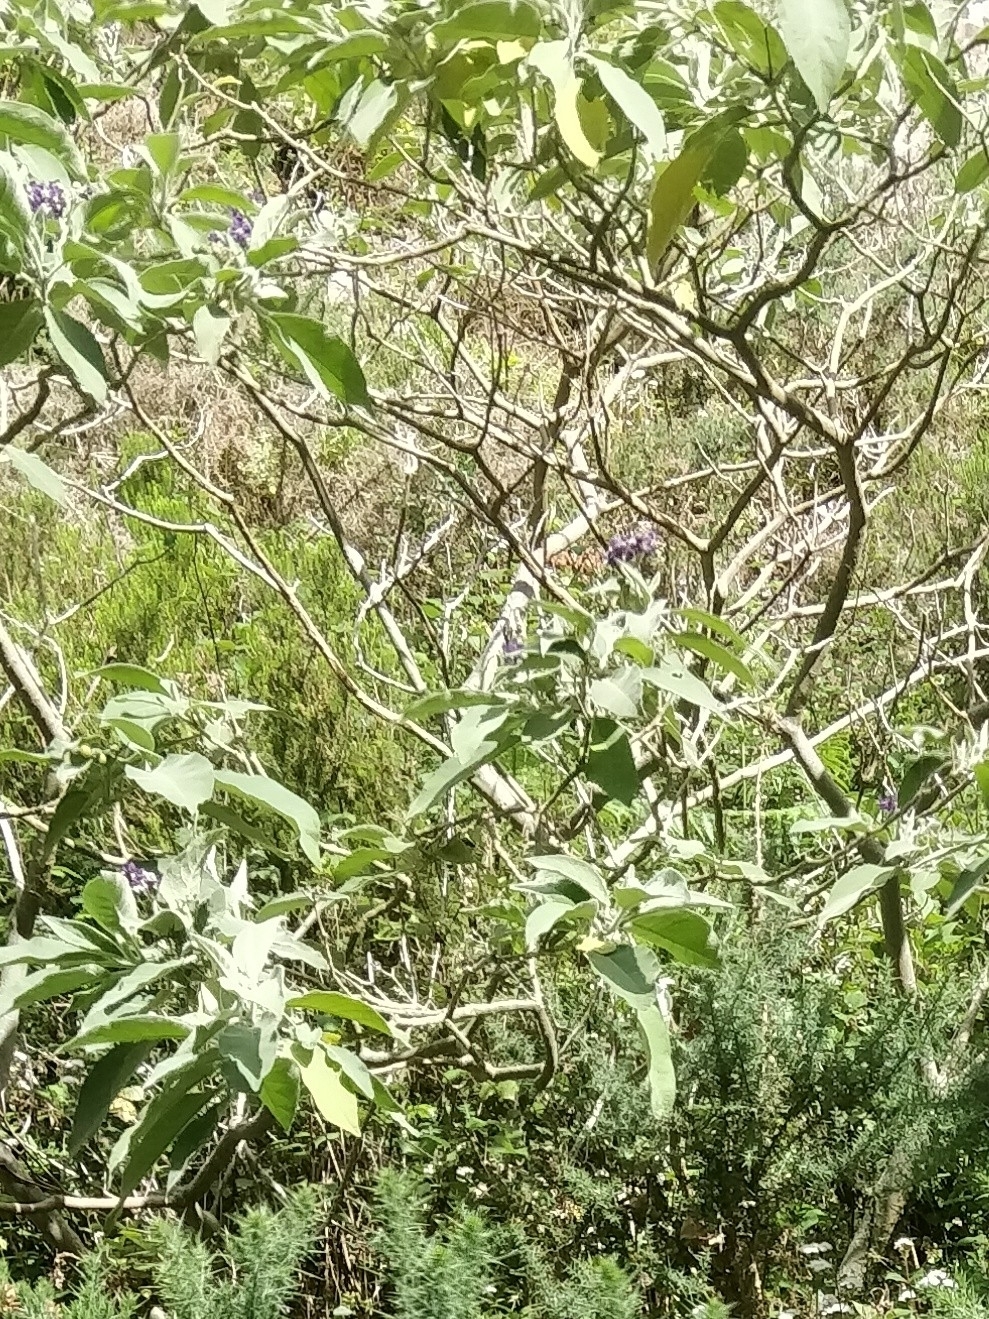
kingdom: Plantae
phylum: Tracheophyta
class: Magnoliopsida
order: Solanales
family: Solanaceae
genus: Solanum
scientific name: Solanum mauritianum
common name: Earleaf nightshade
